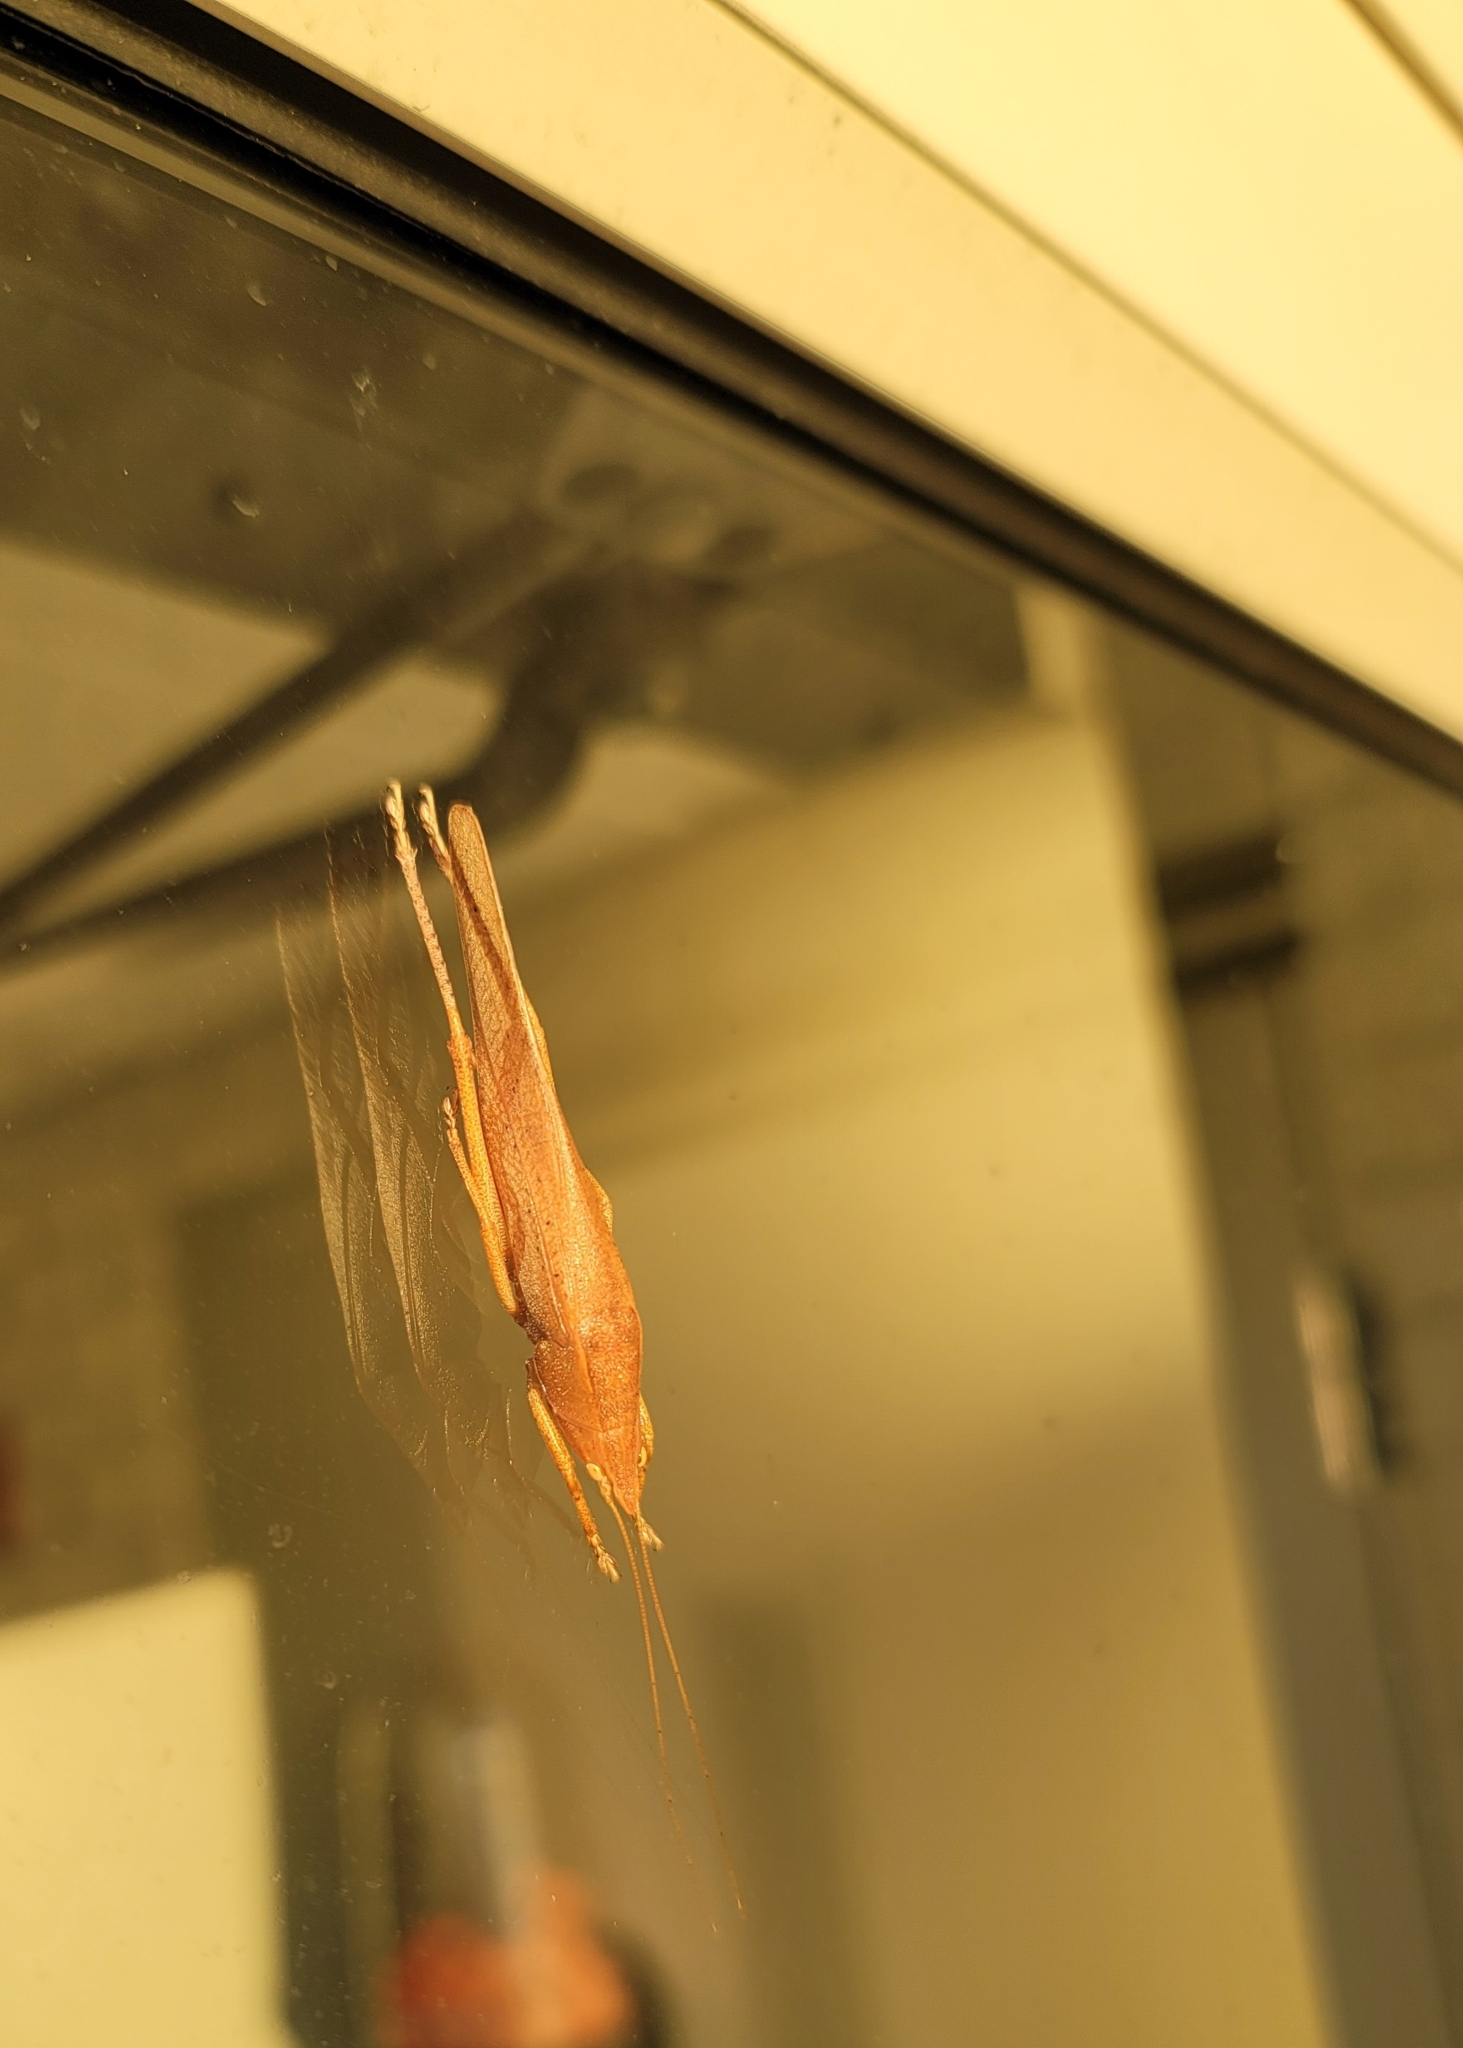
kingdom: Animalia
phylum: Arthropoda
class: Insecta
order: Orthoptera
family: Tettigoniidae
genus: Pyrgocorypha
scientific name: Pyrgocorypha uncinata
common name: Hook-faced conehead
